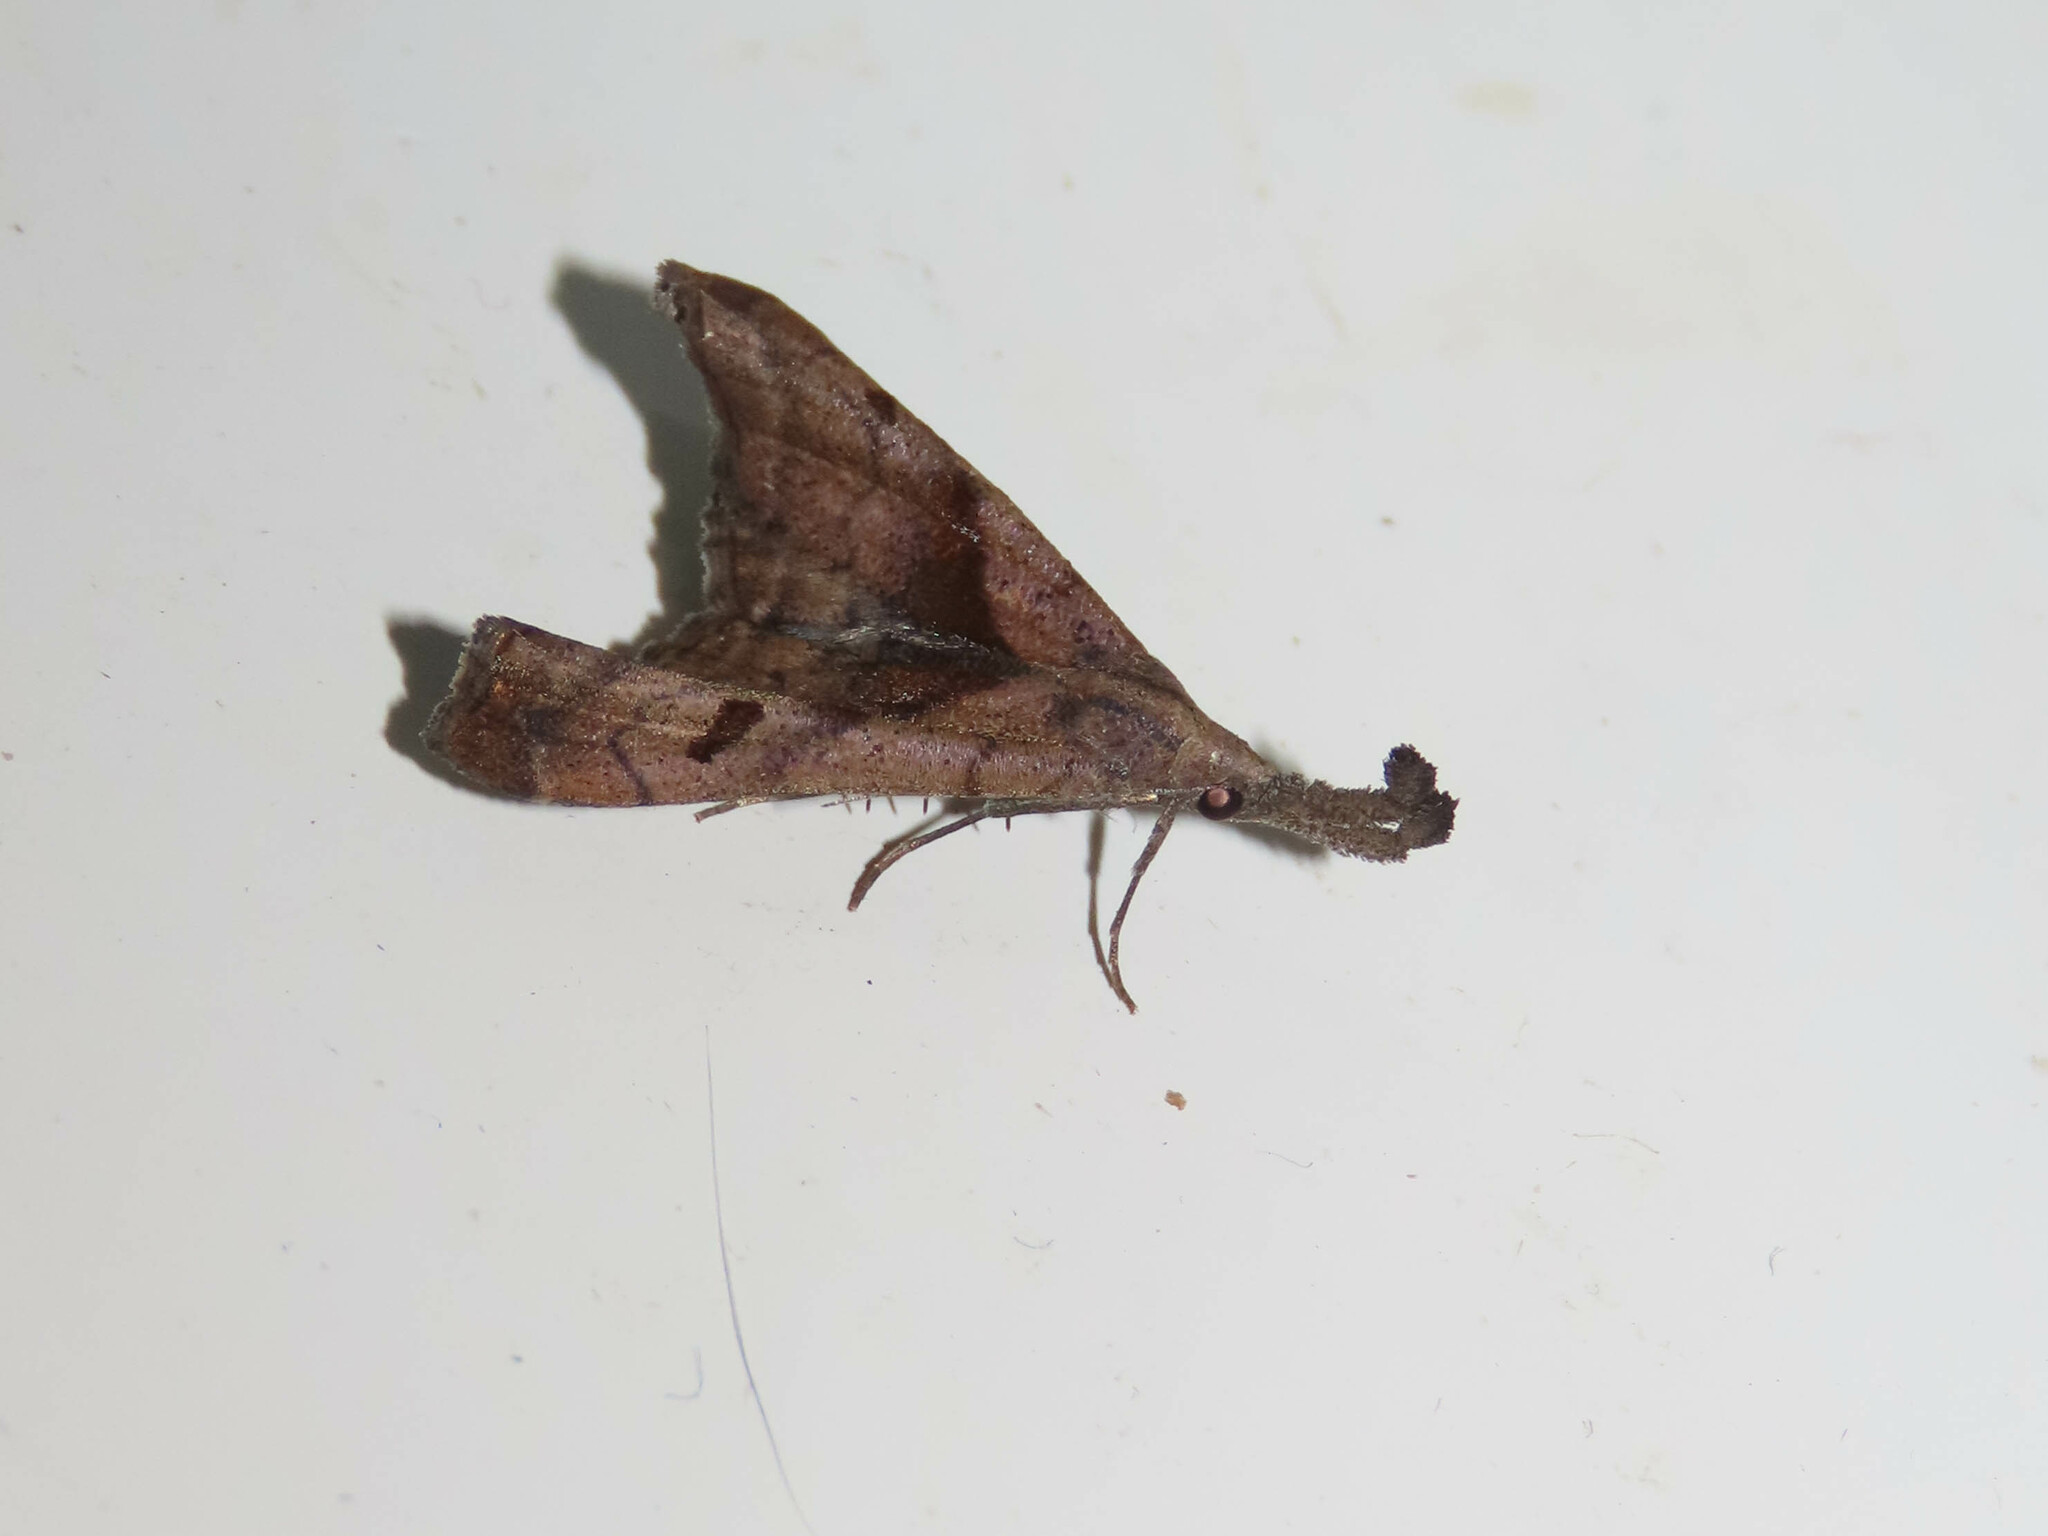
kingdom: Animalia
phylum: Arthropoda
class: Insecta
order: Lepidoptera
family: Erebidae
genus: Palthis
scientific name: Palthis angulalis
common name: Dark-spotted palthis moth
